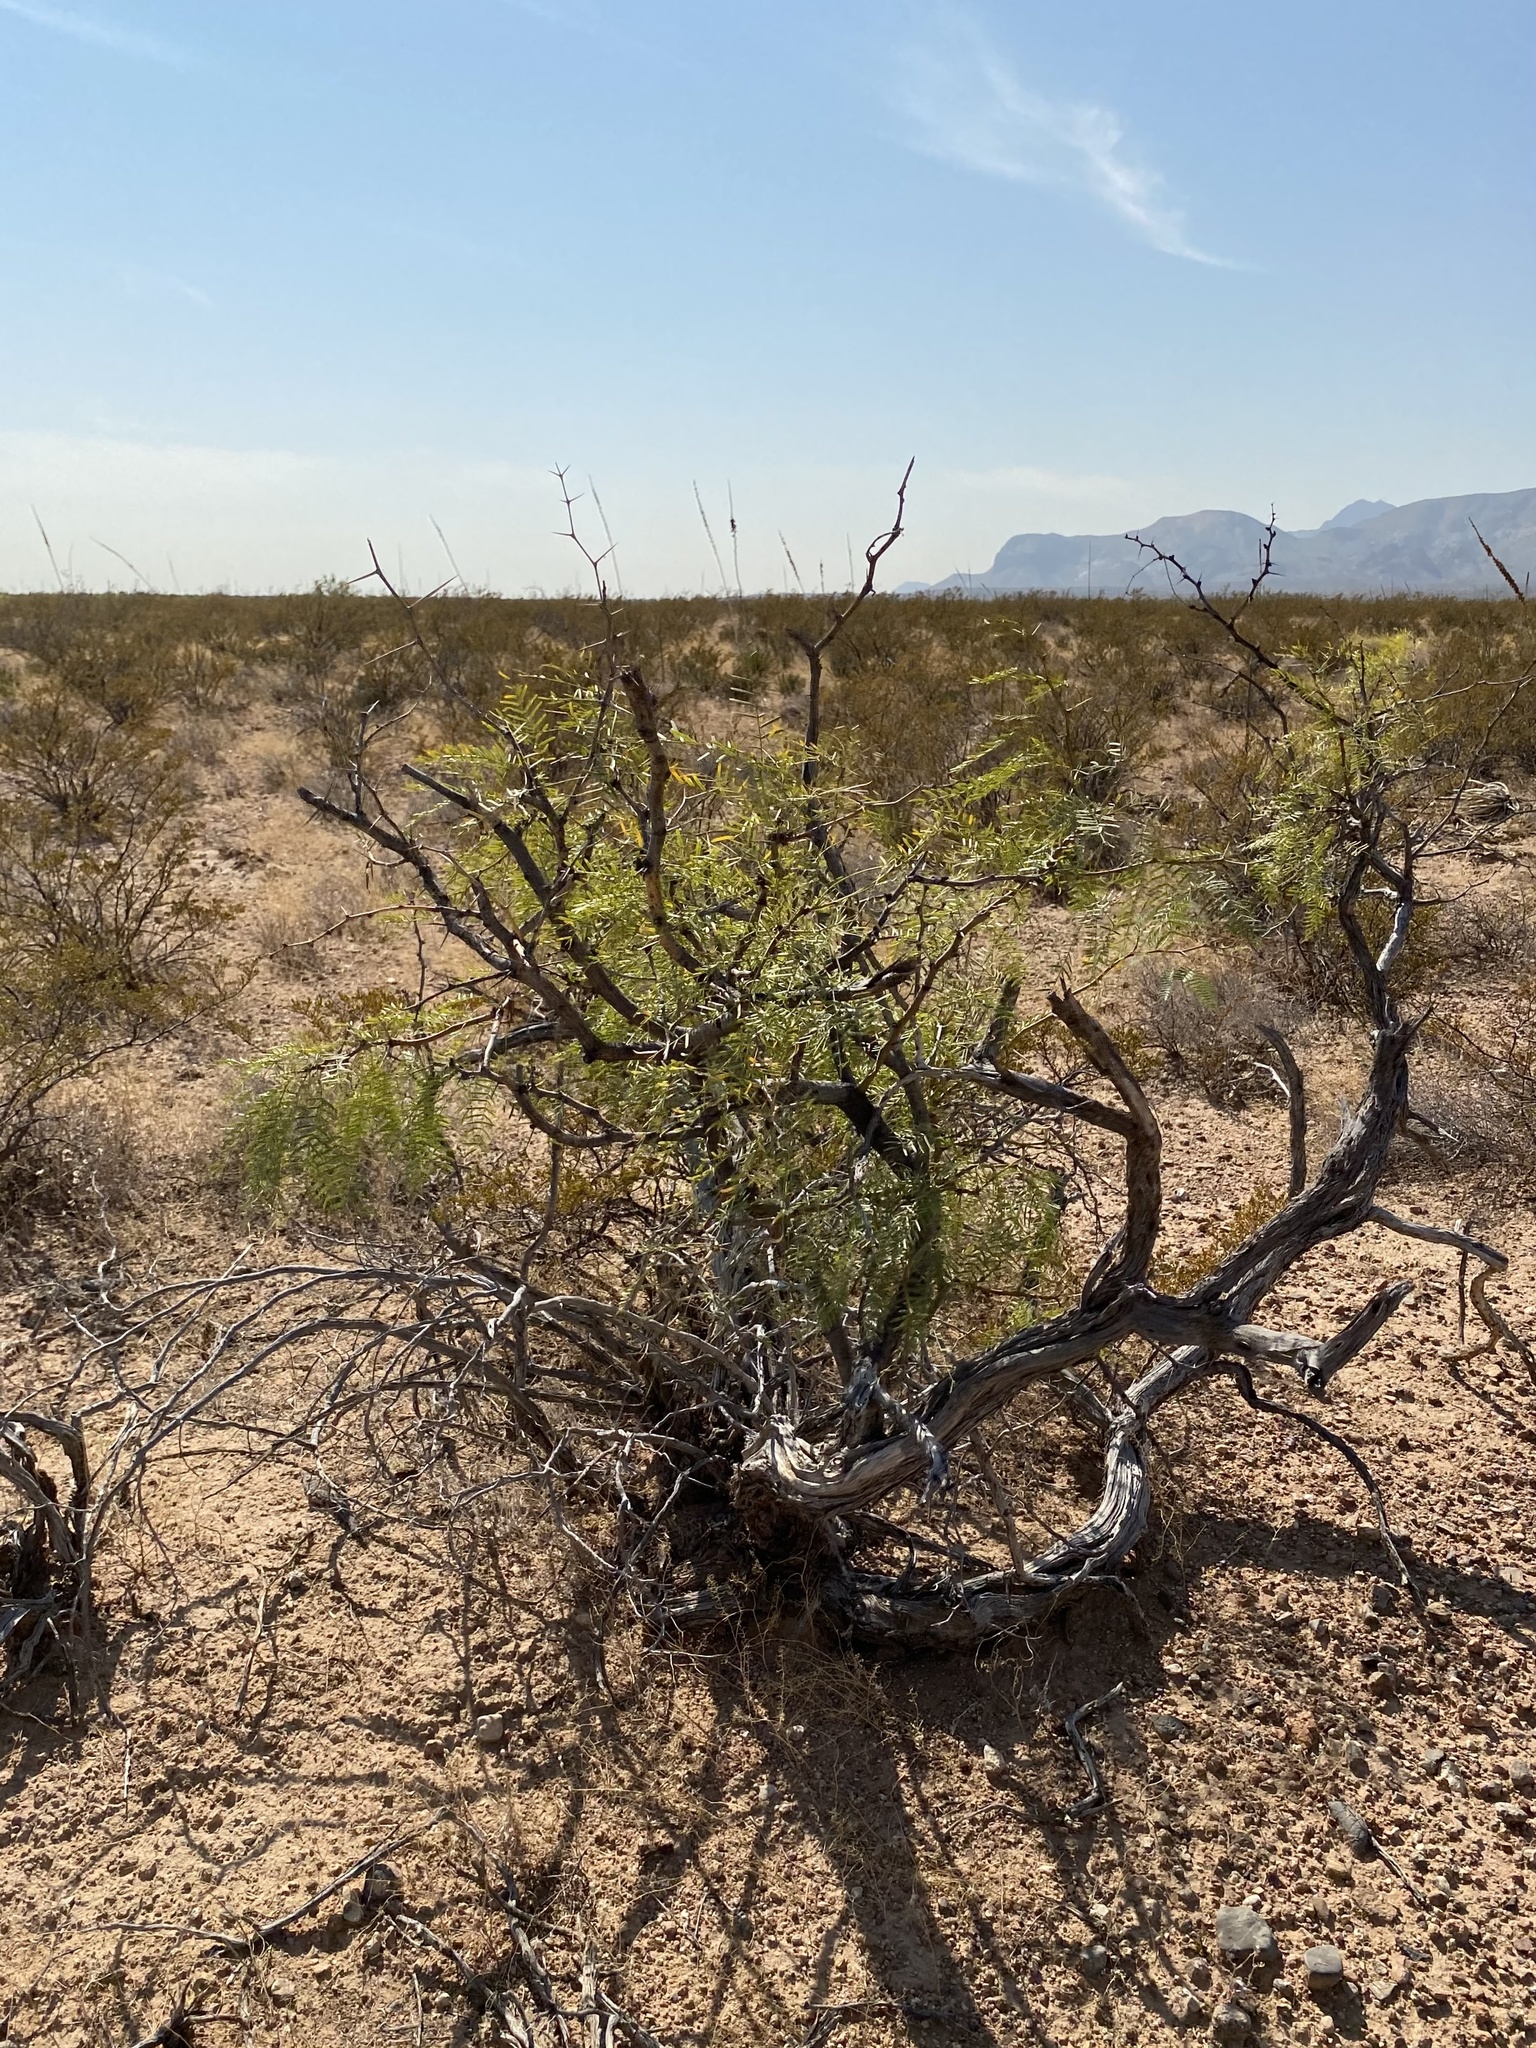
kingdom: Plantae
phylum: Tracheophyta
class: Magnoliopsida
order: Fabales
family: Fabaceae
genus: Prosopis
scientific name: Prosopis glandulosa
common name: Honey mesquite
